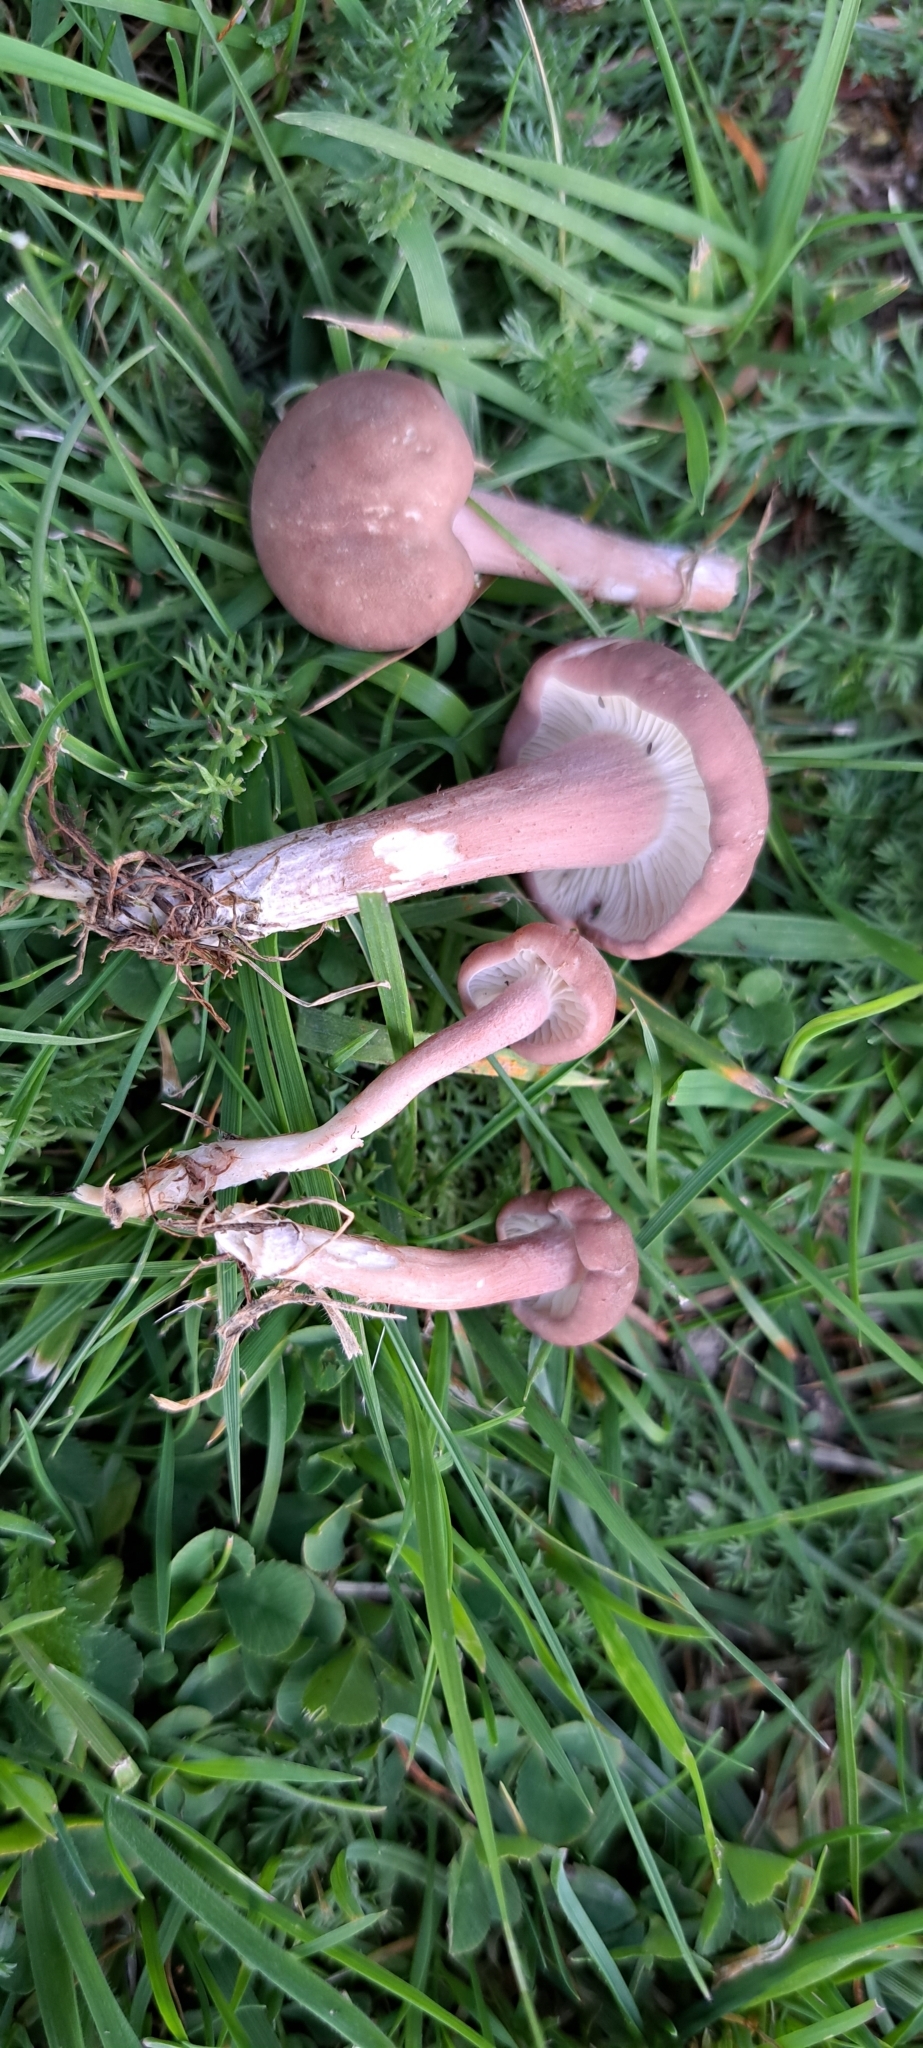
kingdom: Fungi
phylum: Basidiomycota
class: Agaricomycetes
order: Agaricales
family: Lyophyllaceae
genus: Calocybe
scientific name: Calocybe carnea
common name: Pink domecap
